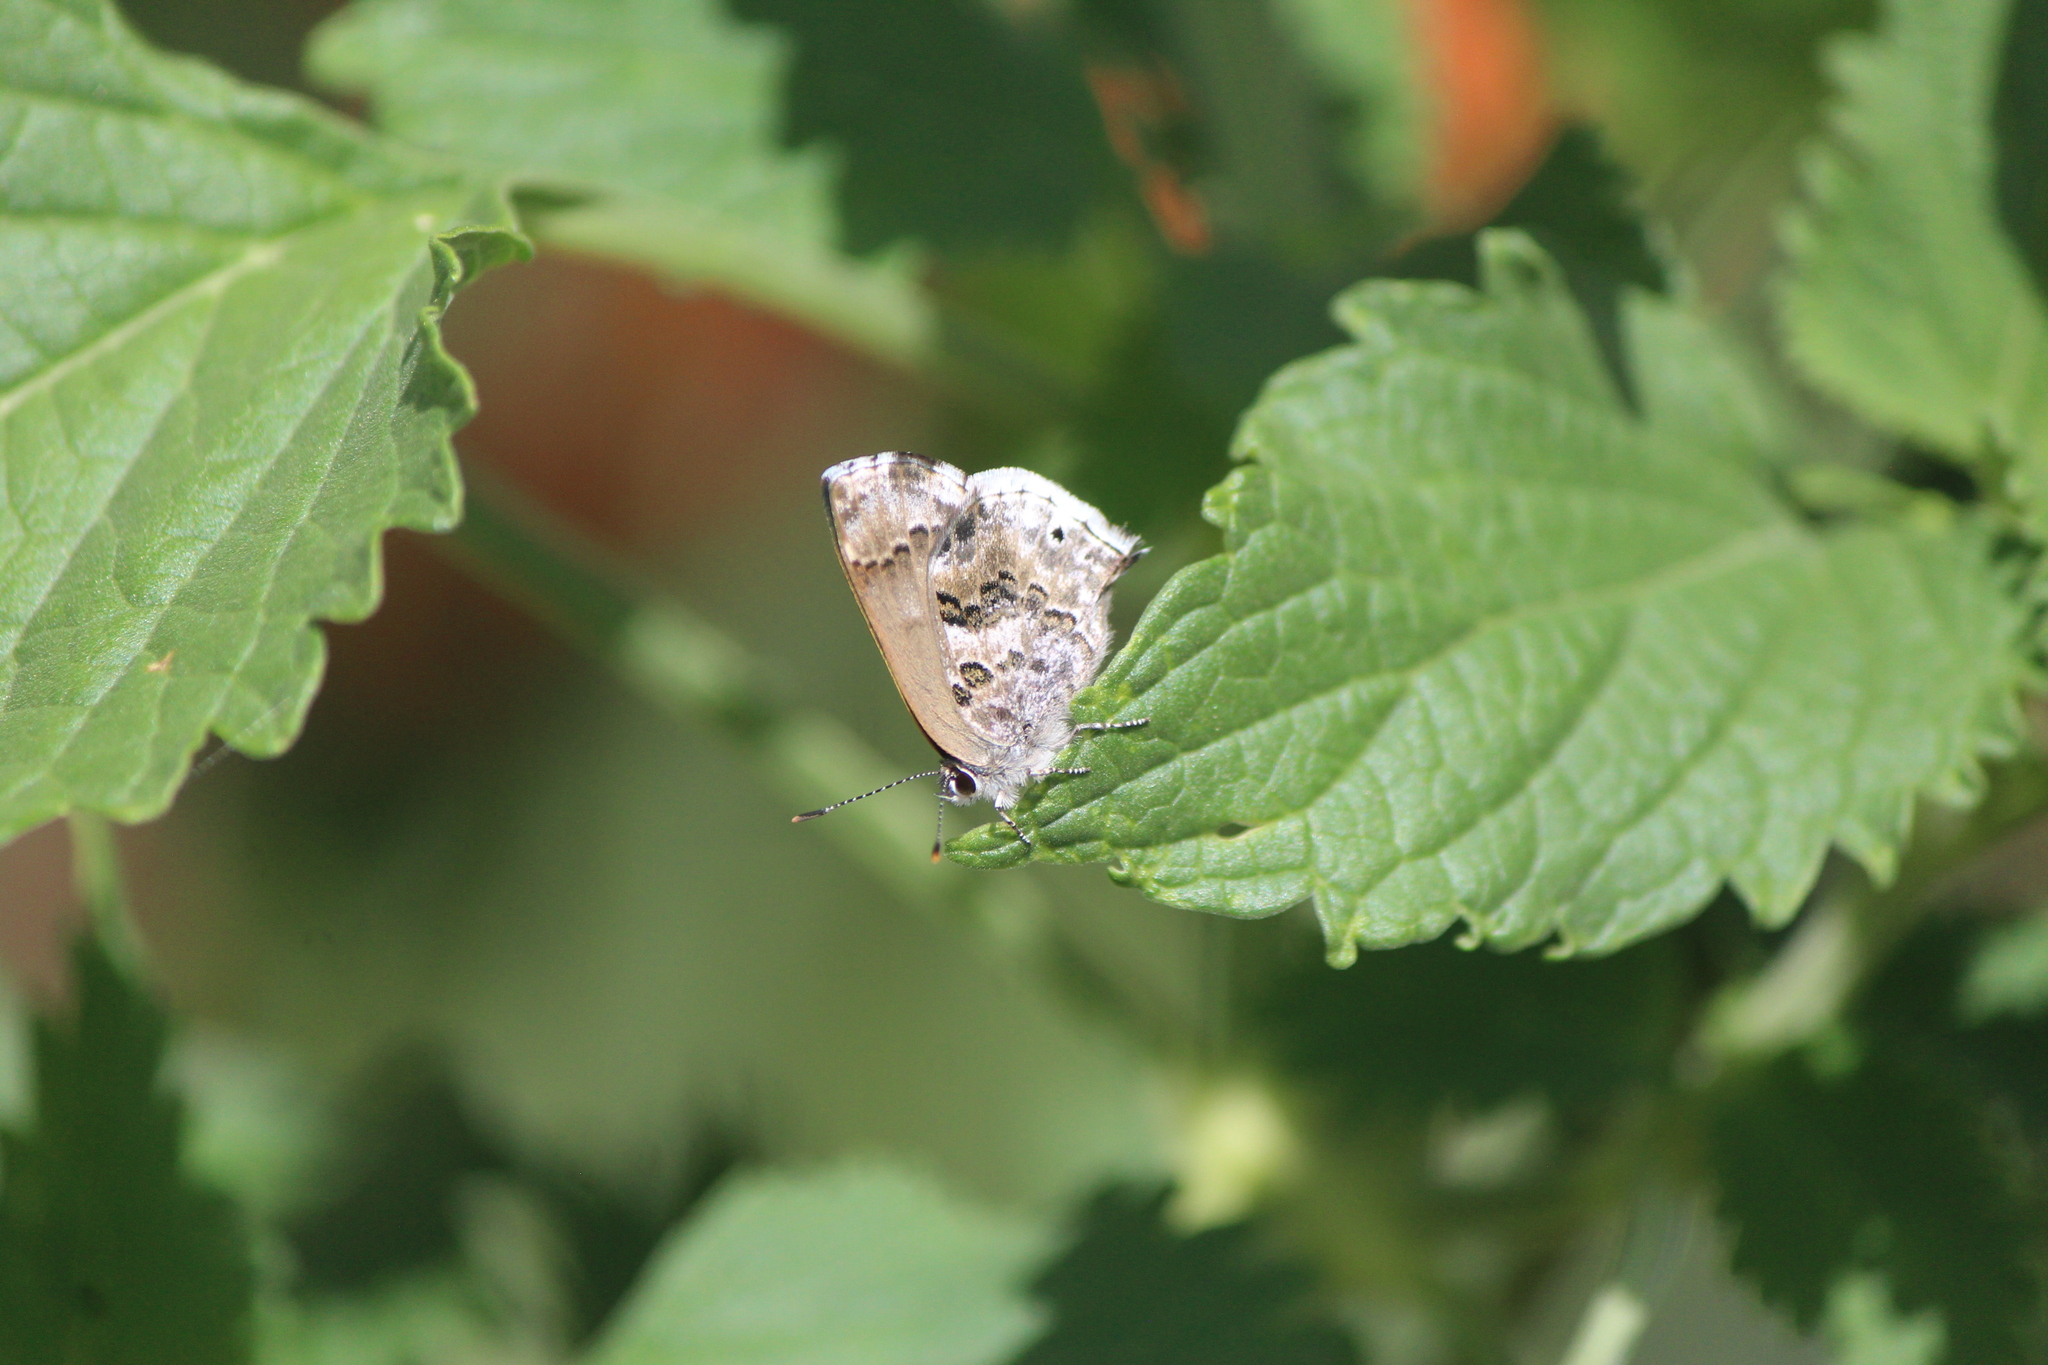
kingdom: Animalia
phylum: Arthropoda
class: Insecta
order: Lepidoptera
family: Lycaenidae
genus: Thecla
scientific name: Thecla cestri
